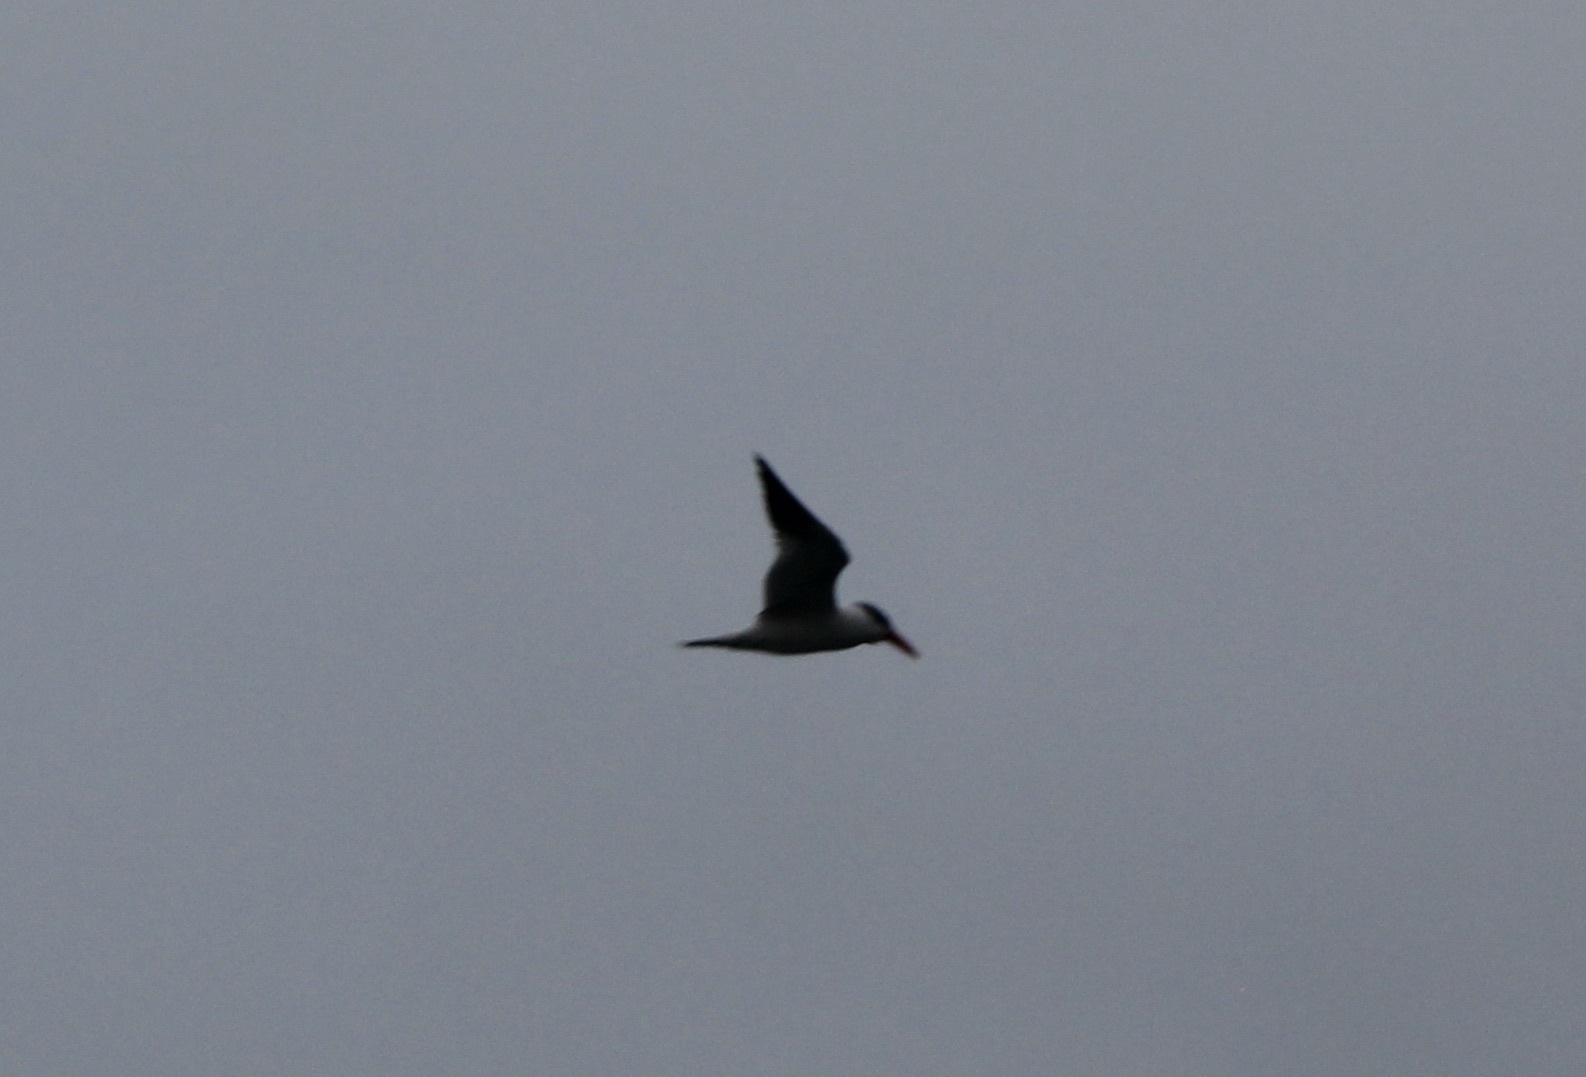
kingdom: Animalia
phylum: Chordata
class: Aves
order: Charadriiformes
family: Laridae
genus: Hydroprogne
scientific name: Hydroprogne caspia
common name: Caspian tern
